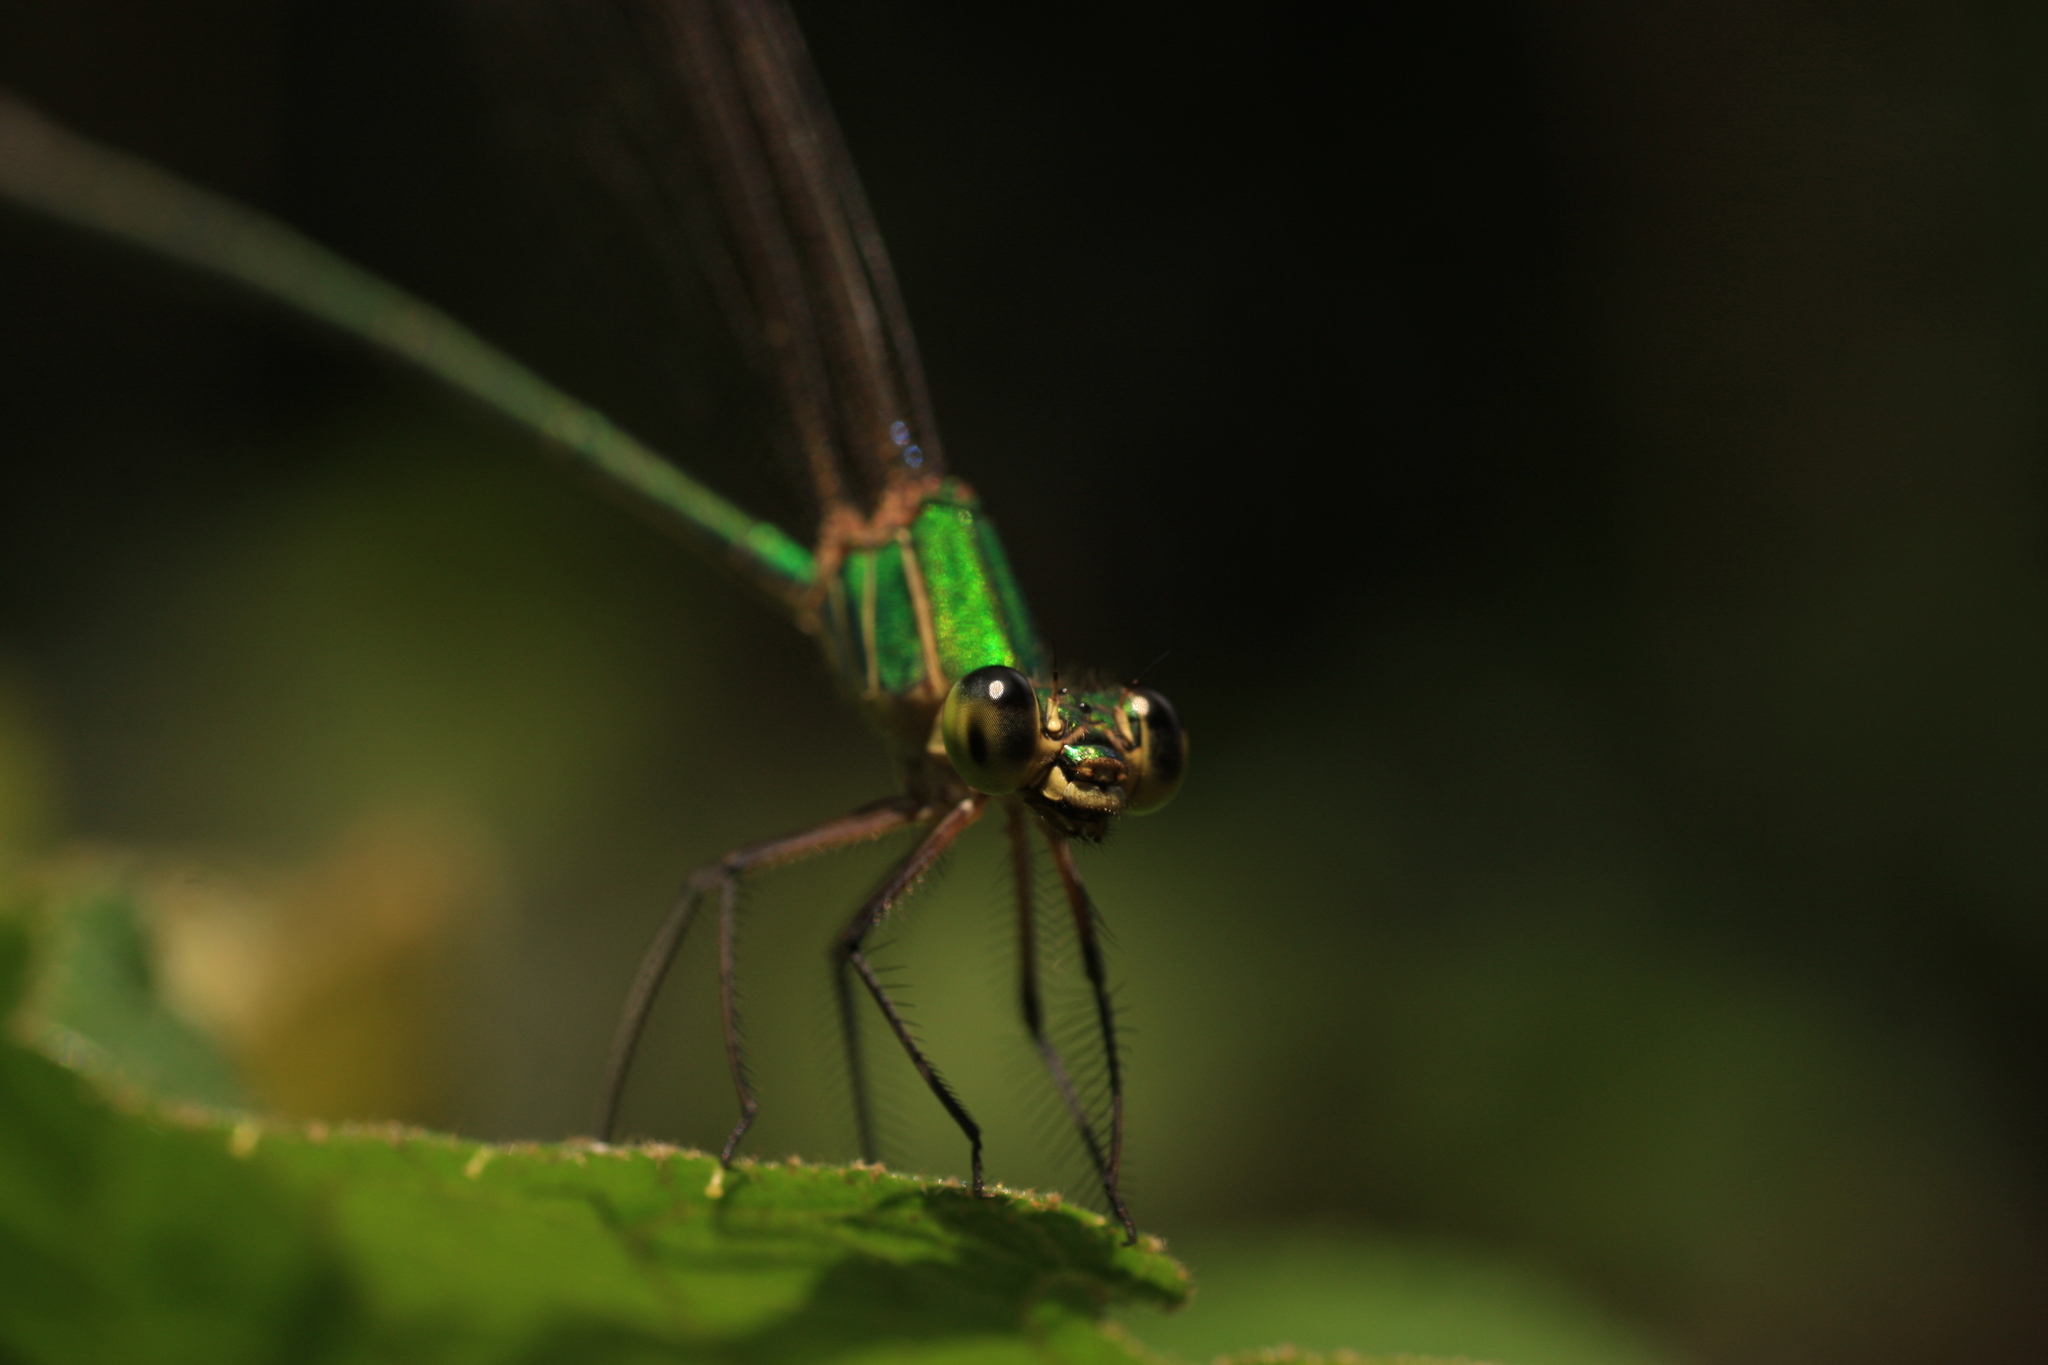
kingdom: Animalia
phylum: Arthropoda
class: Insecta
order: Odonata
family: Calopterygidae
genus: Vestalis
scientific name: Vestalis gracilis
